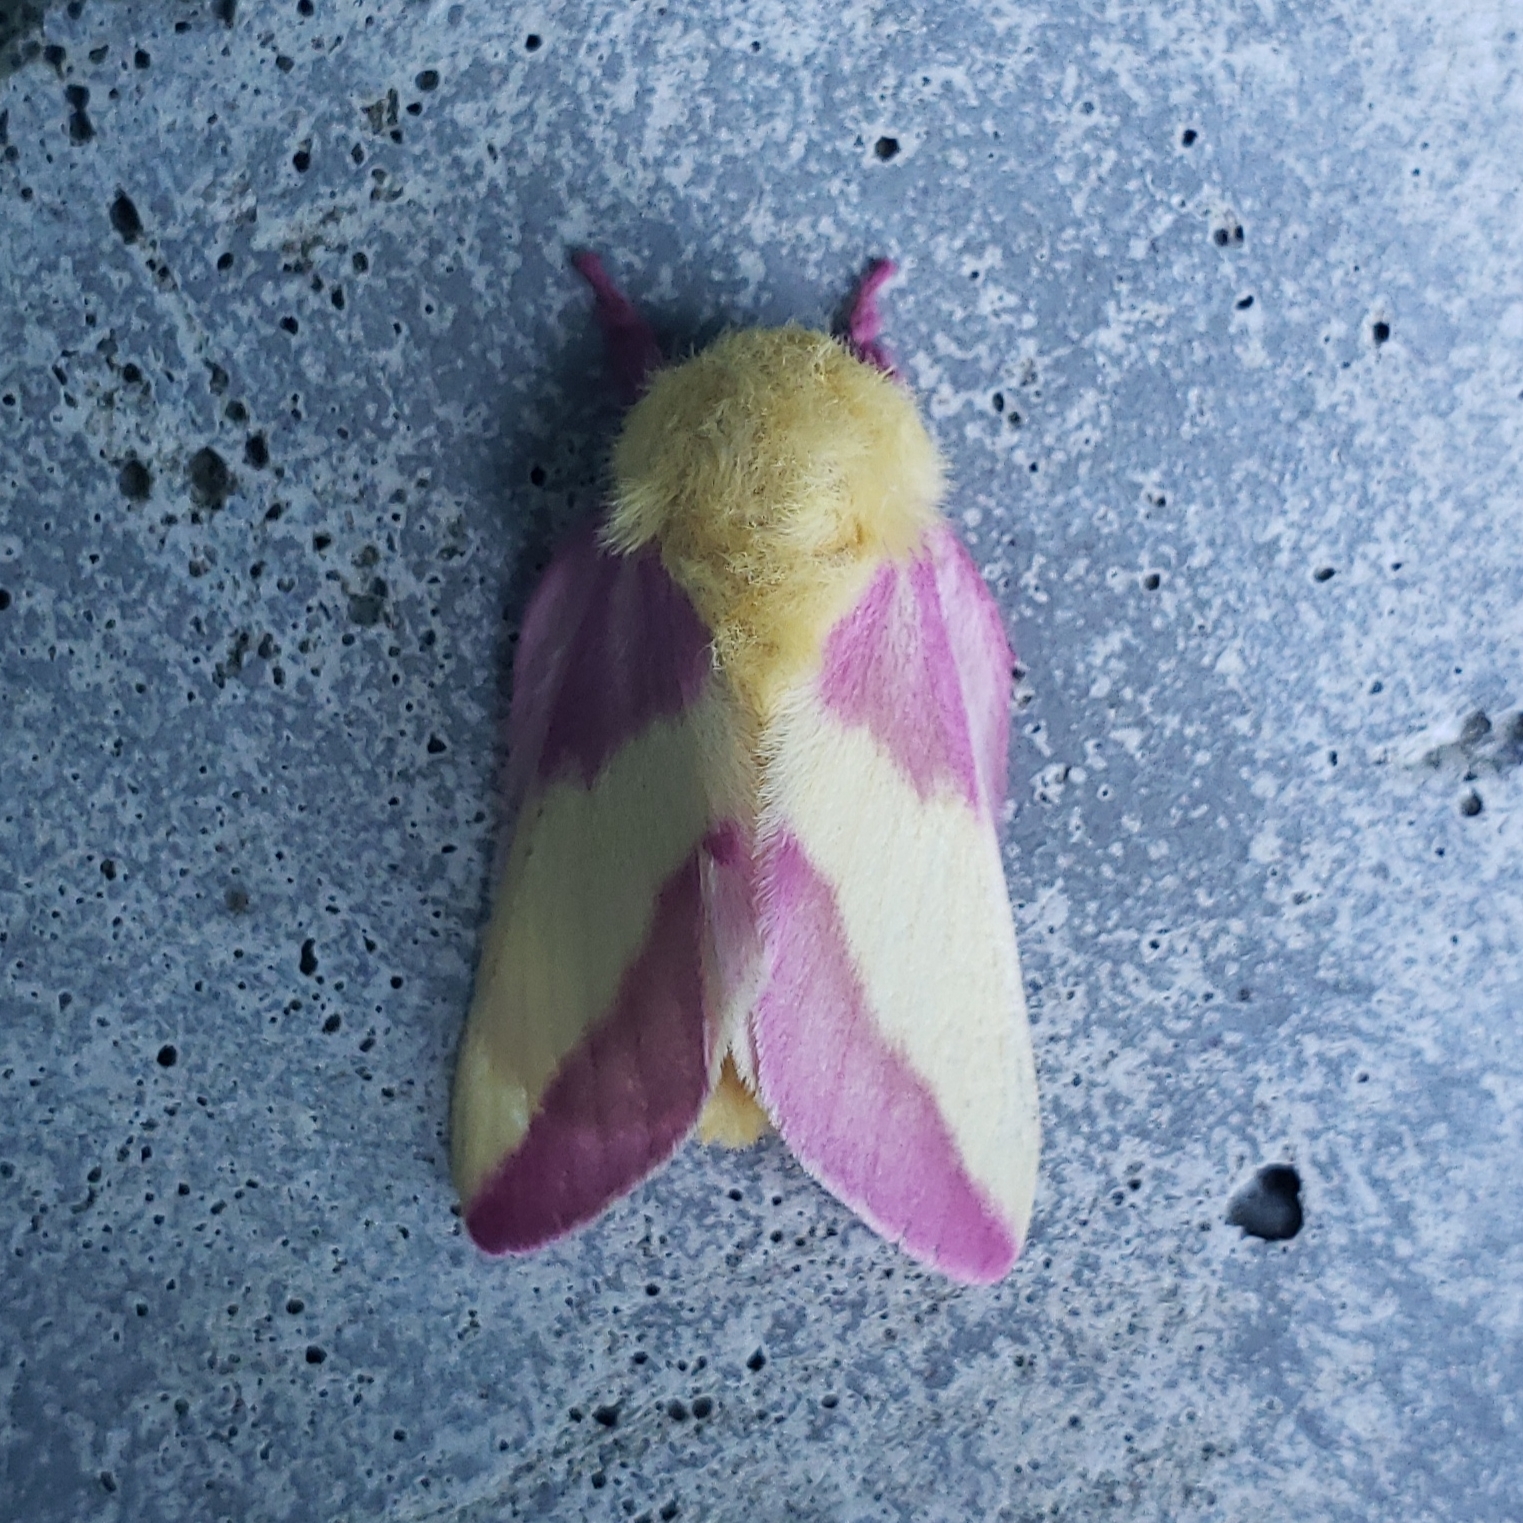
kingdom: Animalia
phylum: Arthropoda
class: Insecta
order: Lepidoptera
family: Saturniidae
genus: Dryocampa
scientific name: Dryocampa rubicunda
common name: Rosy maple moth
